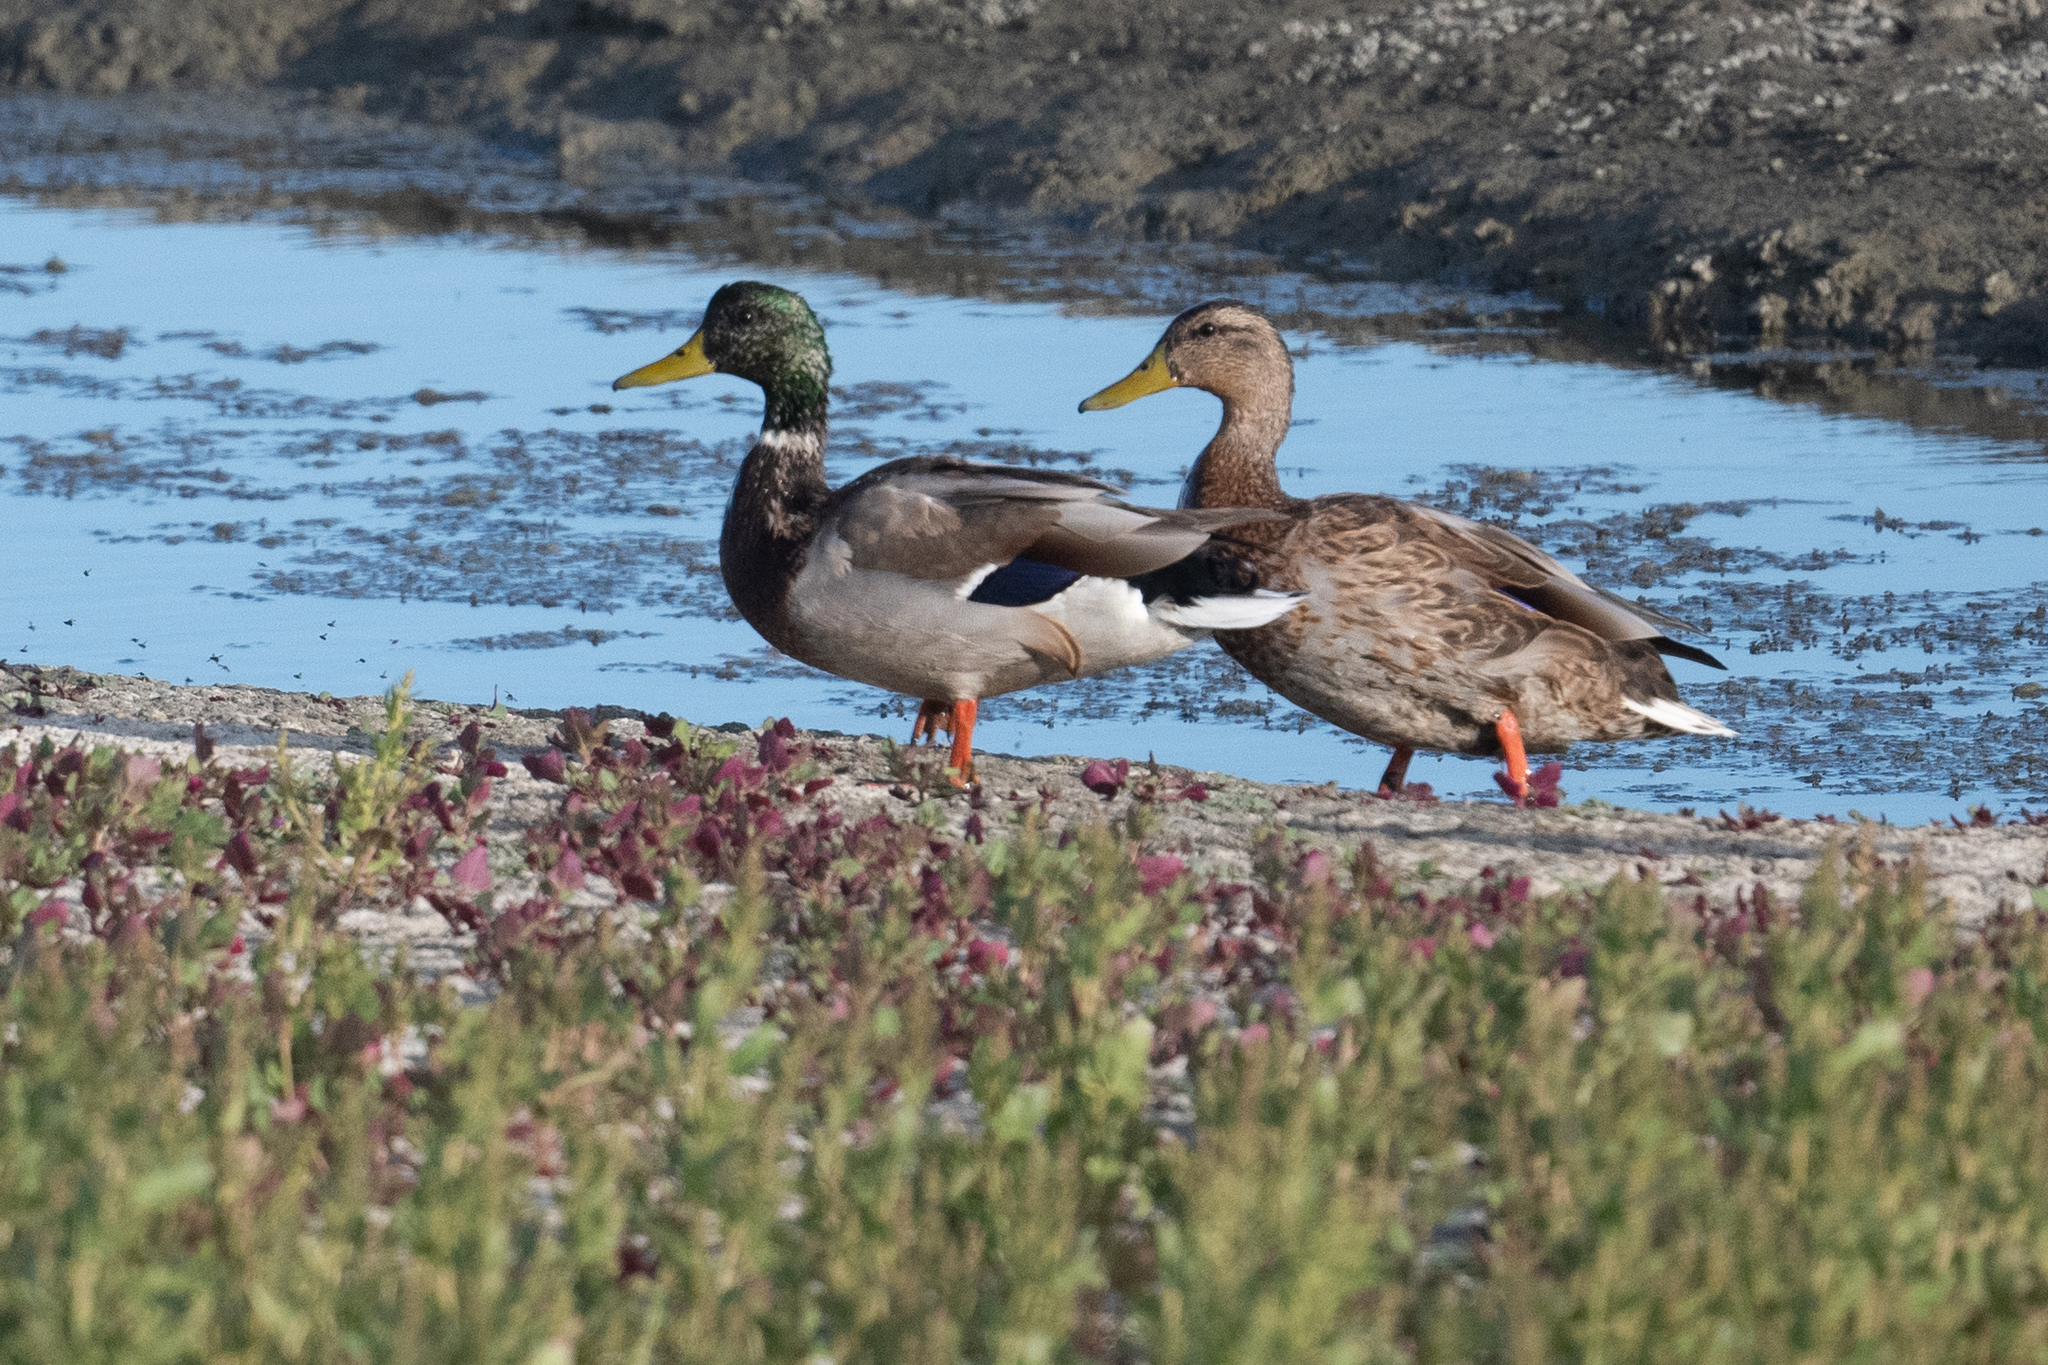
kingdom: Animalia
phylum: Chordata
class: Aves
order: Anseriformes
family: Anatidae
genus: Anas
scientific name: Anas platyrhynchos
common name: Mallard
